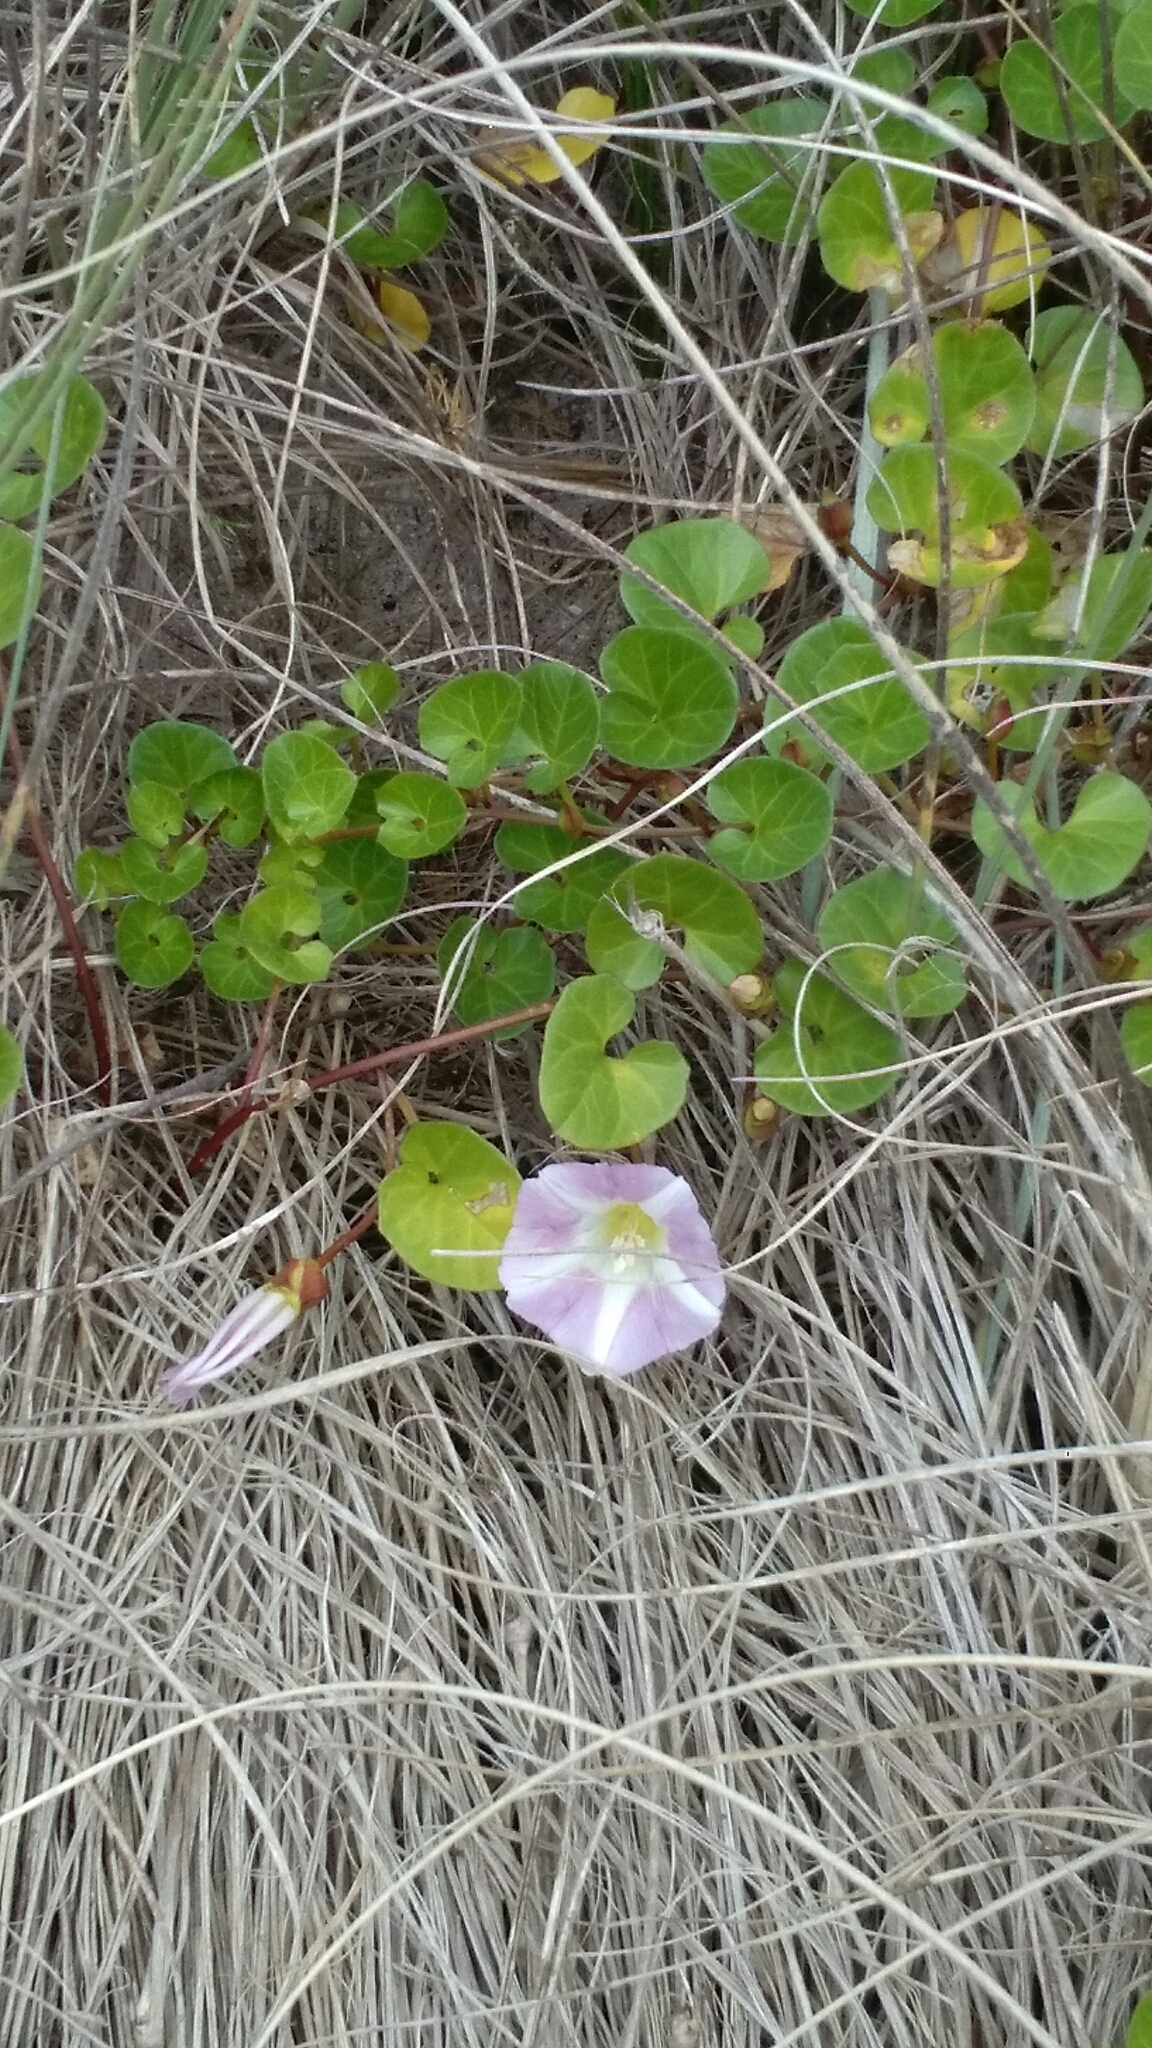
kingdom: Plantae
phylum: Tracheophyta
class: Magnoliopsida
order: Solanales
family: Convolvulaceae
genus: Calystegia
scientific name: Calystegia soldanella
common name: Sea bindweed
